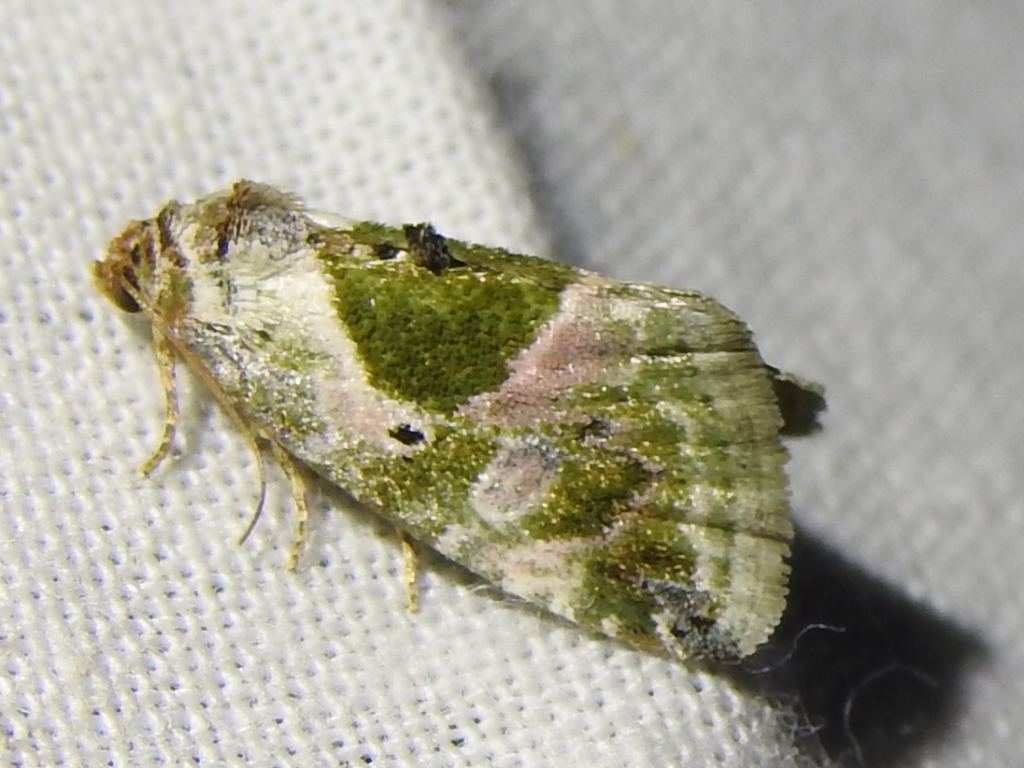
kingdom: Animalia
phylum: Arthropoda
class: Insecta
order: Lepidoptera
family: Noctuidae
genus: Maliattha
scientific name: Maliattha synochitis
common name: Black-dotted glyph
